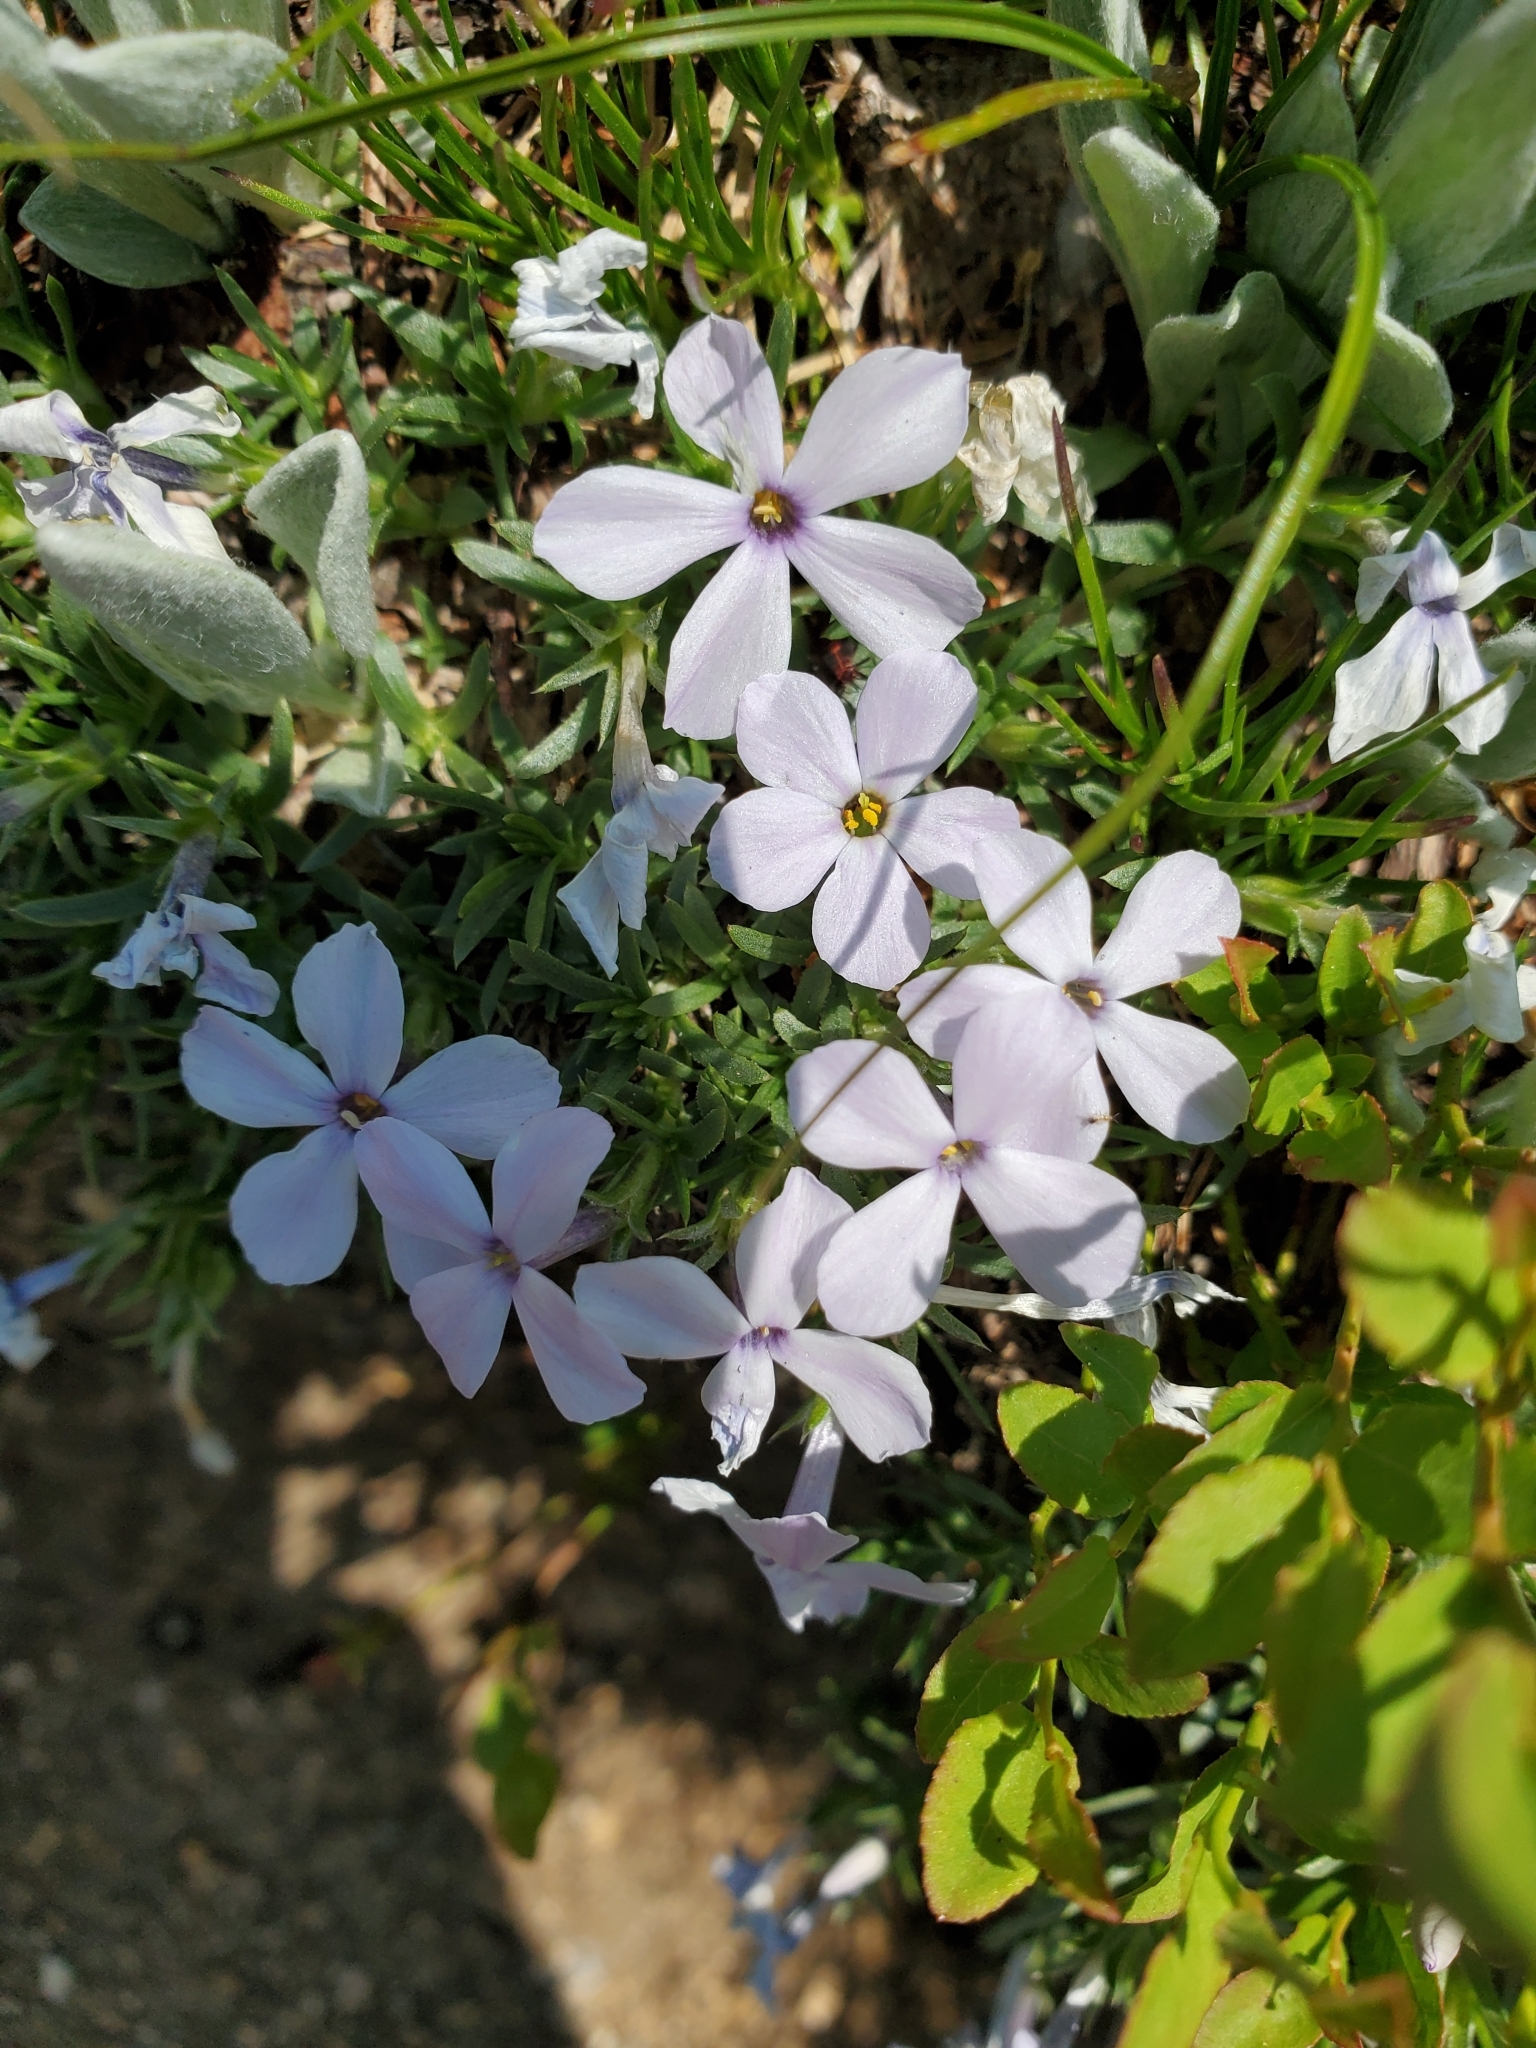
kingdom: Plantae
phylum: Tracheophyta
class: Magnoliopsida
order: Ericales
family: Polemoniaceae
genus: Phlox
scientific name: Phlox diffusa
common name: Mat phlox
